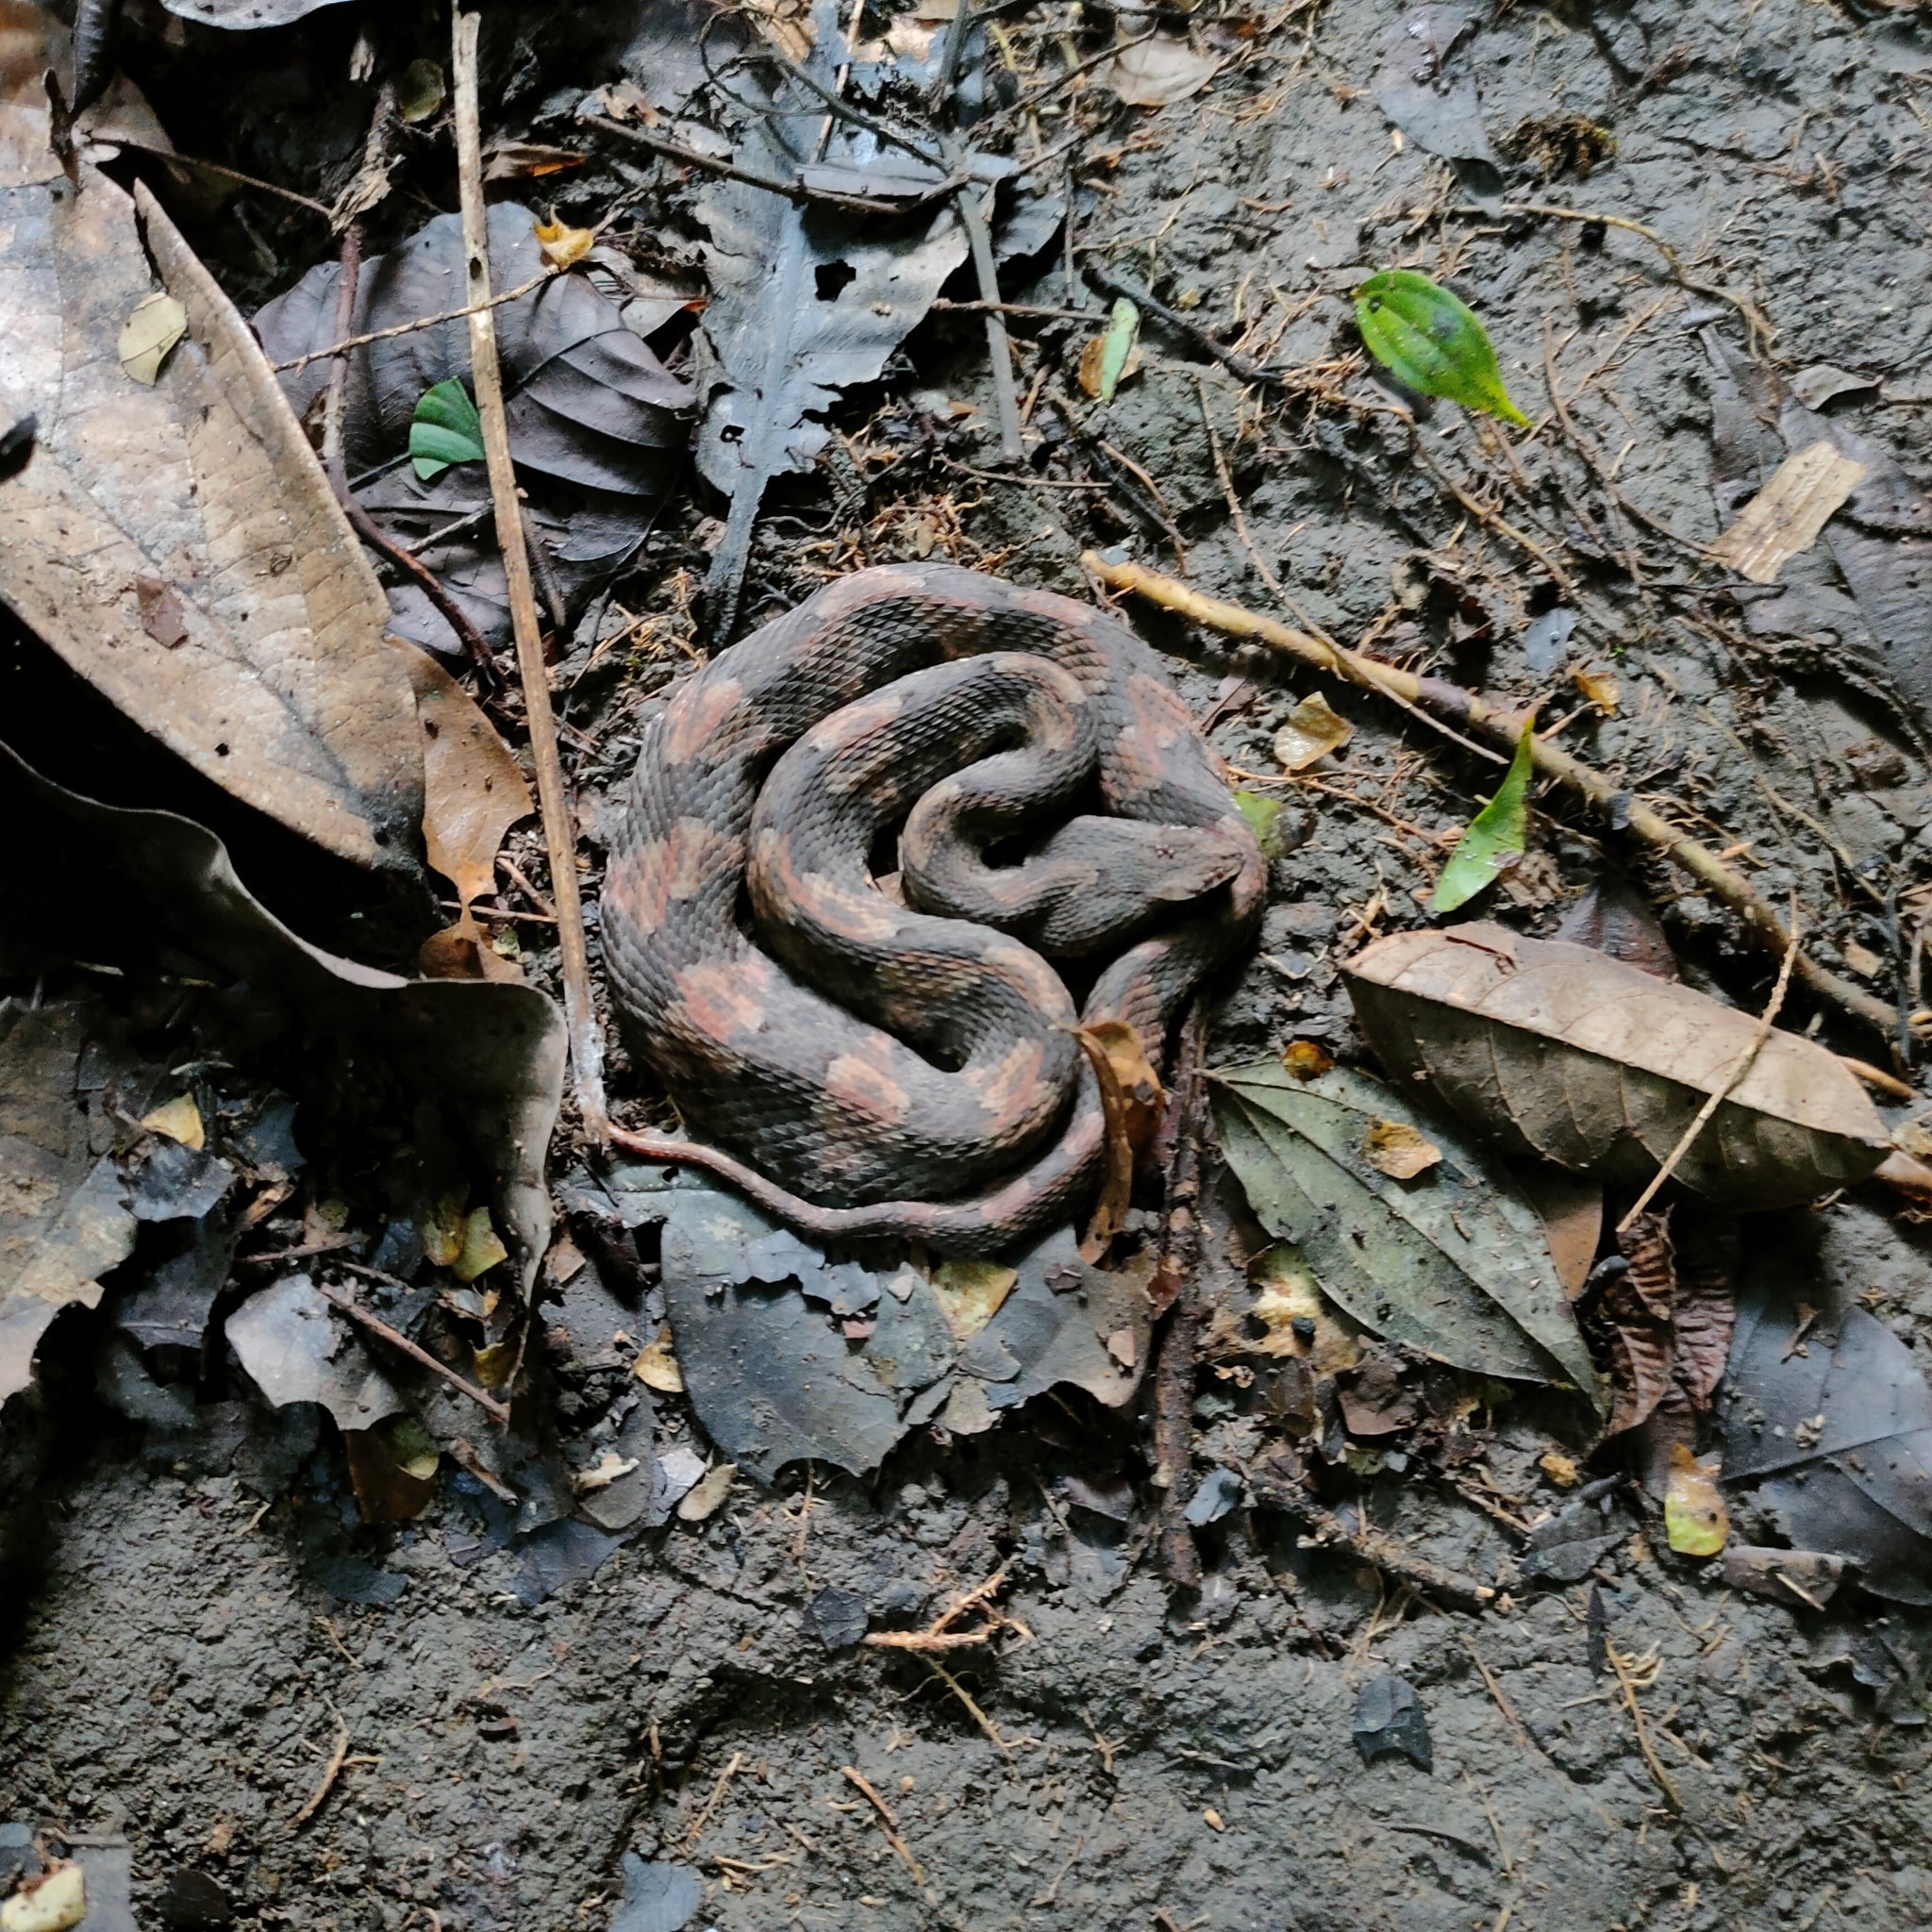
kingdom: Animalia
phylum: Chordata
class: Squamata
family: Viperidae
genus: Porthidium
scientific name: Porthidium nasutum
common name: Hognosed pit viper
